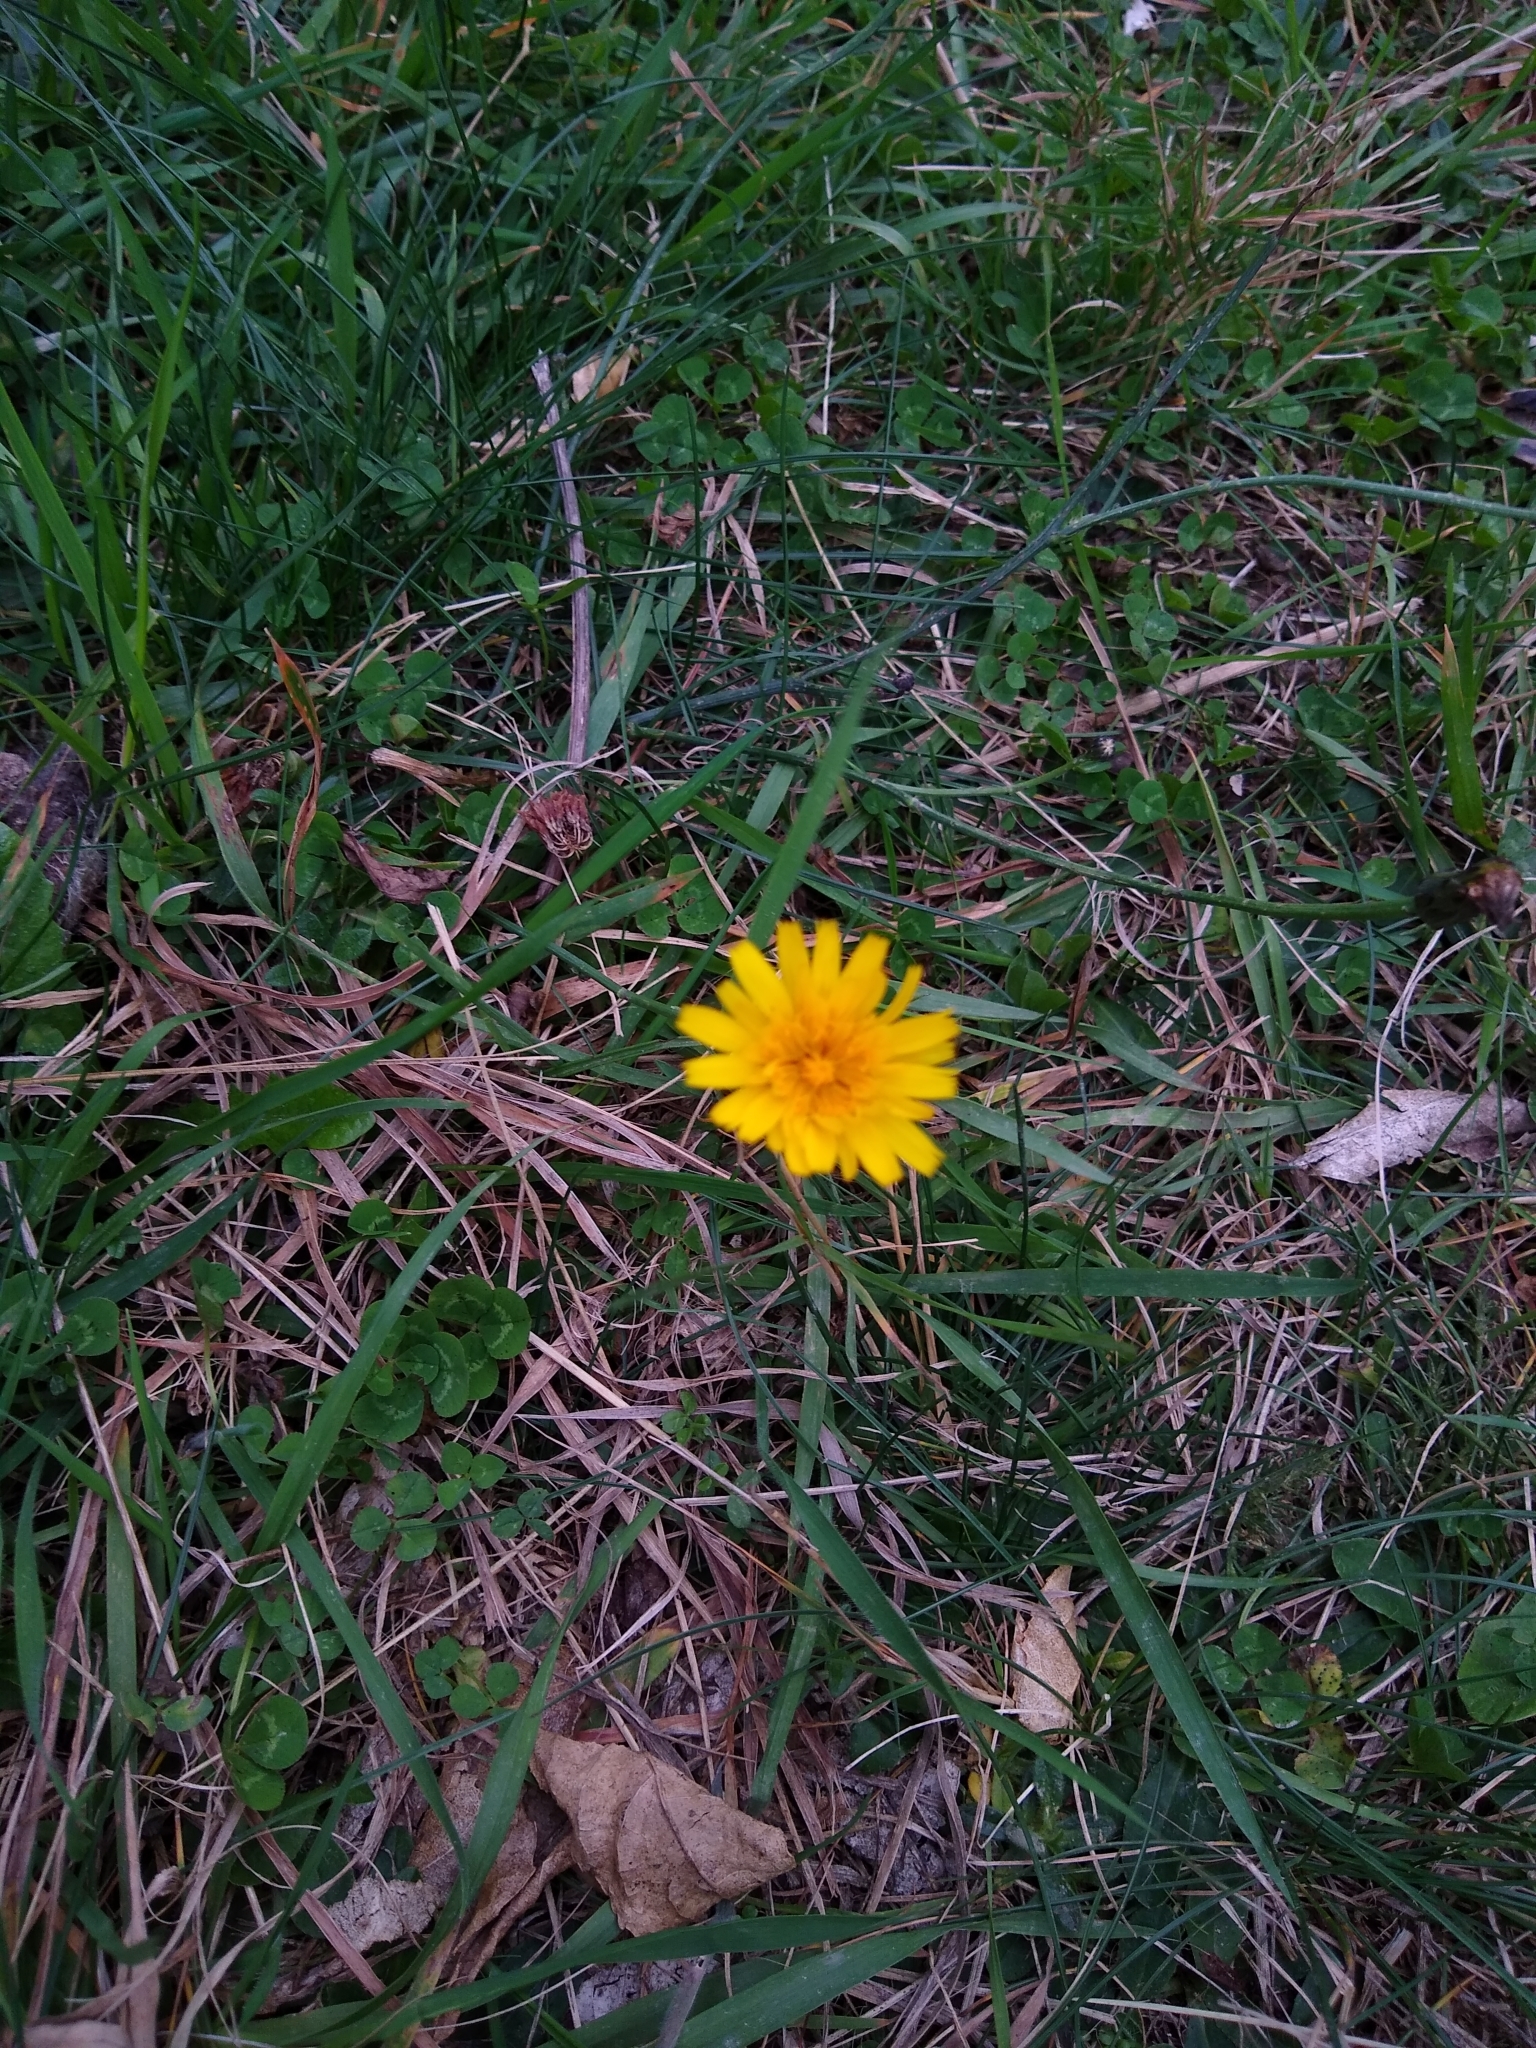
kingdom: Plantae
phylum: Tracheophyta
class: Magnoliopsida
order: Asterales
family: Asteraceae
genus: Hypochaeris
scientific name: Hypochaeris radicata
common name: Flatweed
